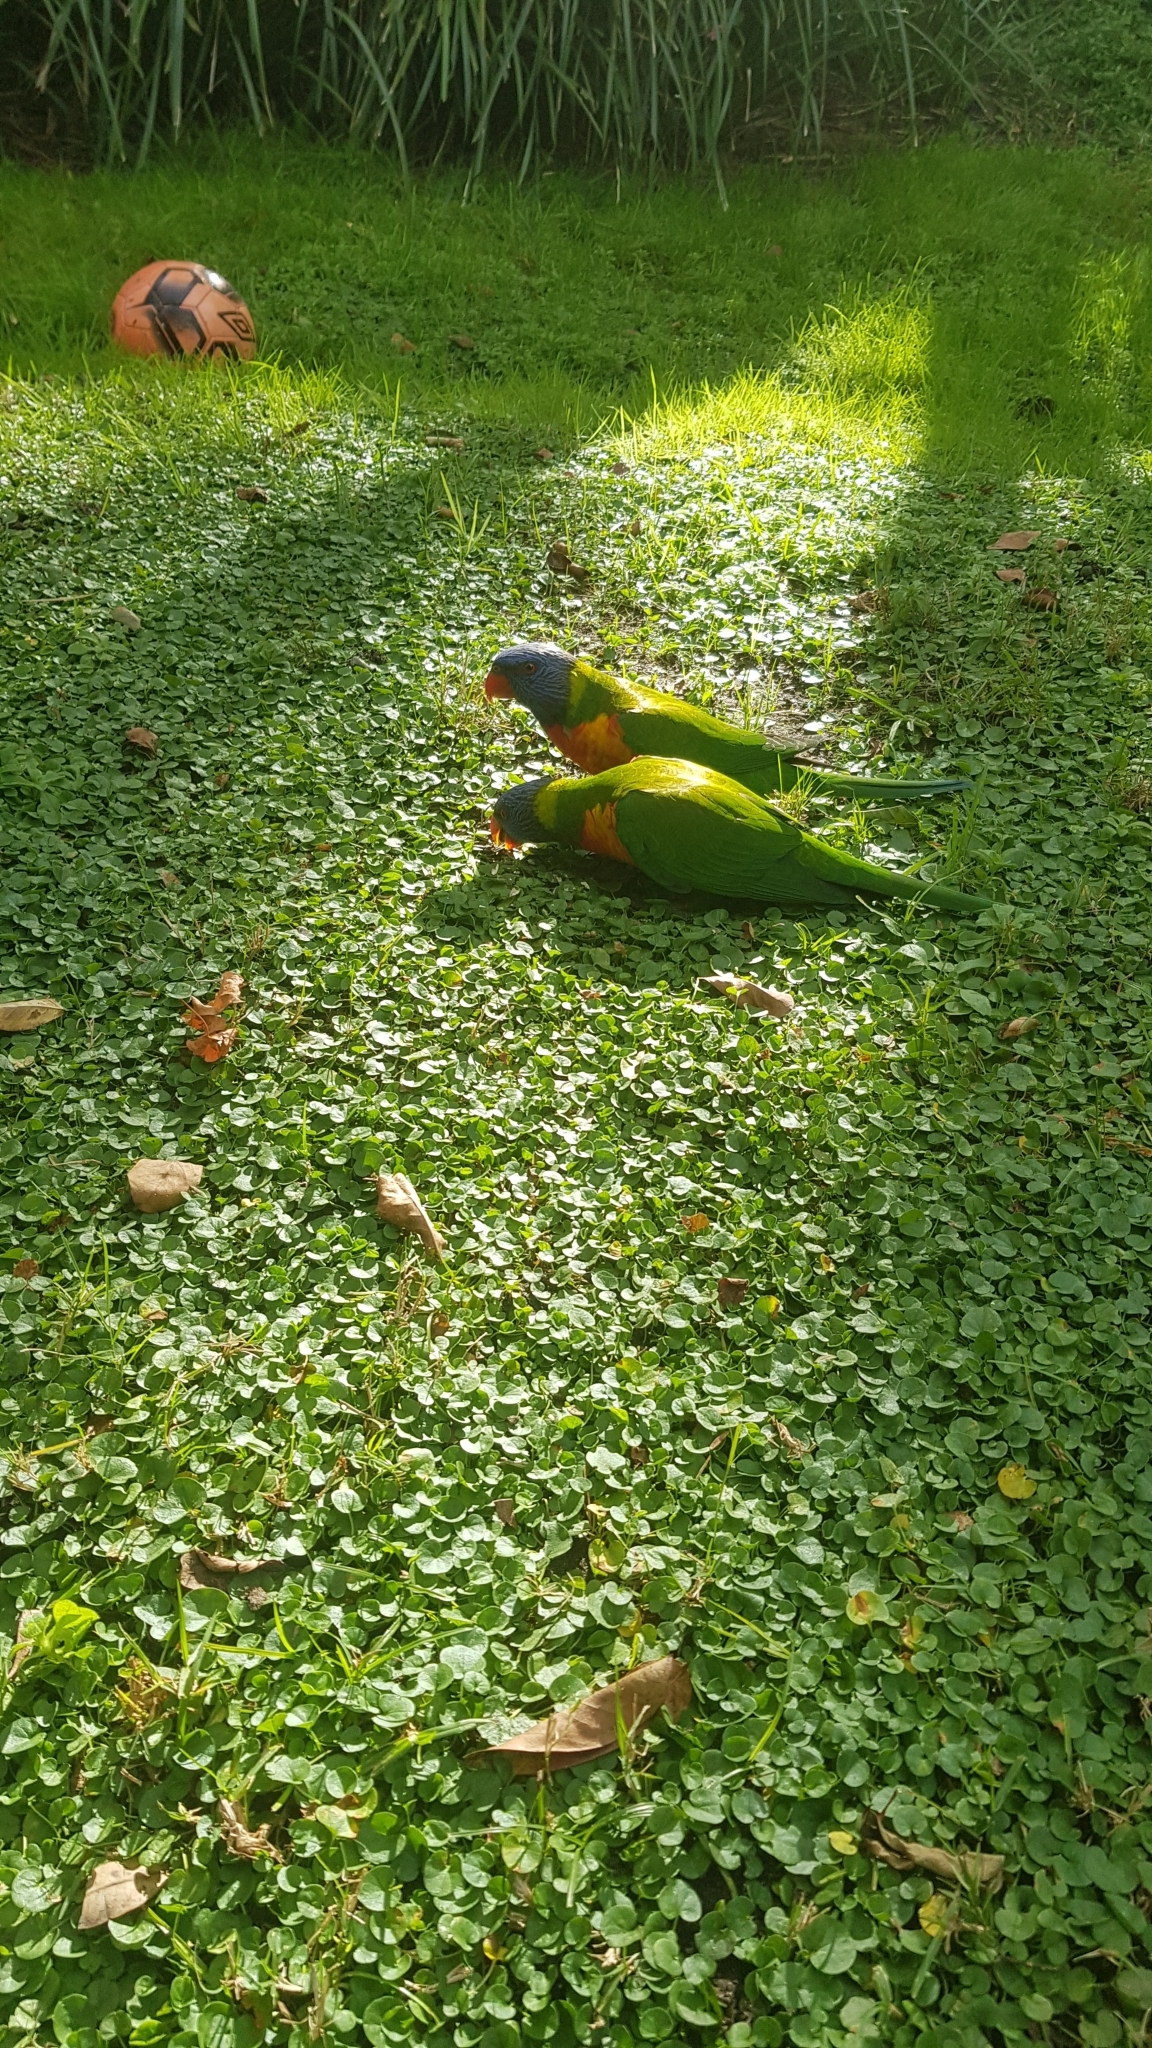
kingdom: Animalia
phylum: Chordata
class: Aves
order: Psittaciformes
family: Psittacidae
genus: Trichoglossus
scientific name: Trichoglossus haematodus
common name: Coconut lorikeet
